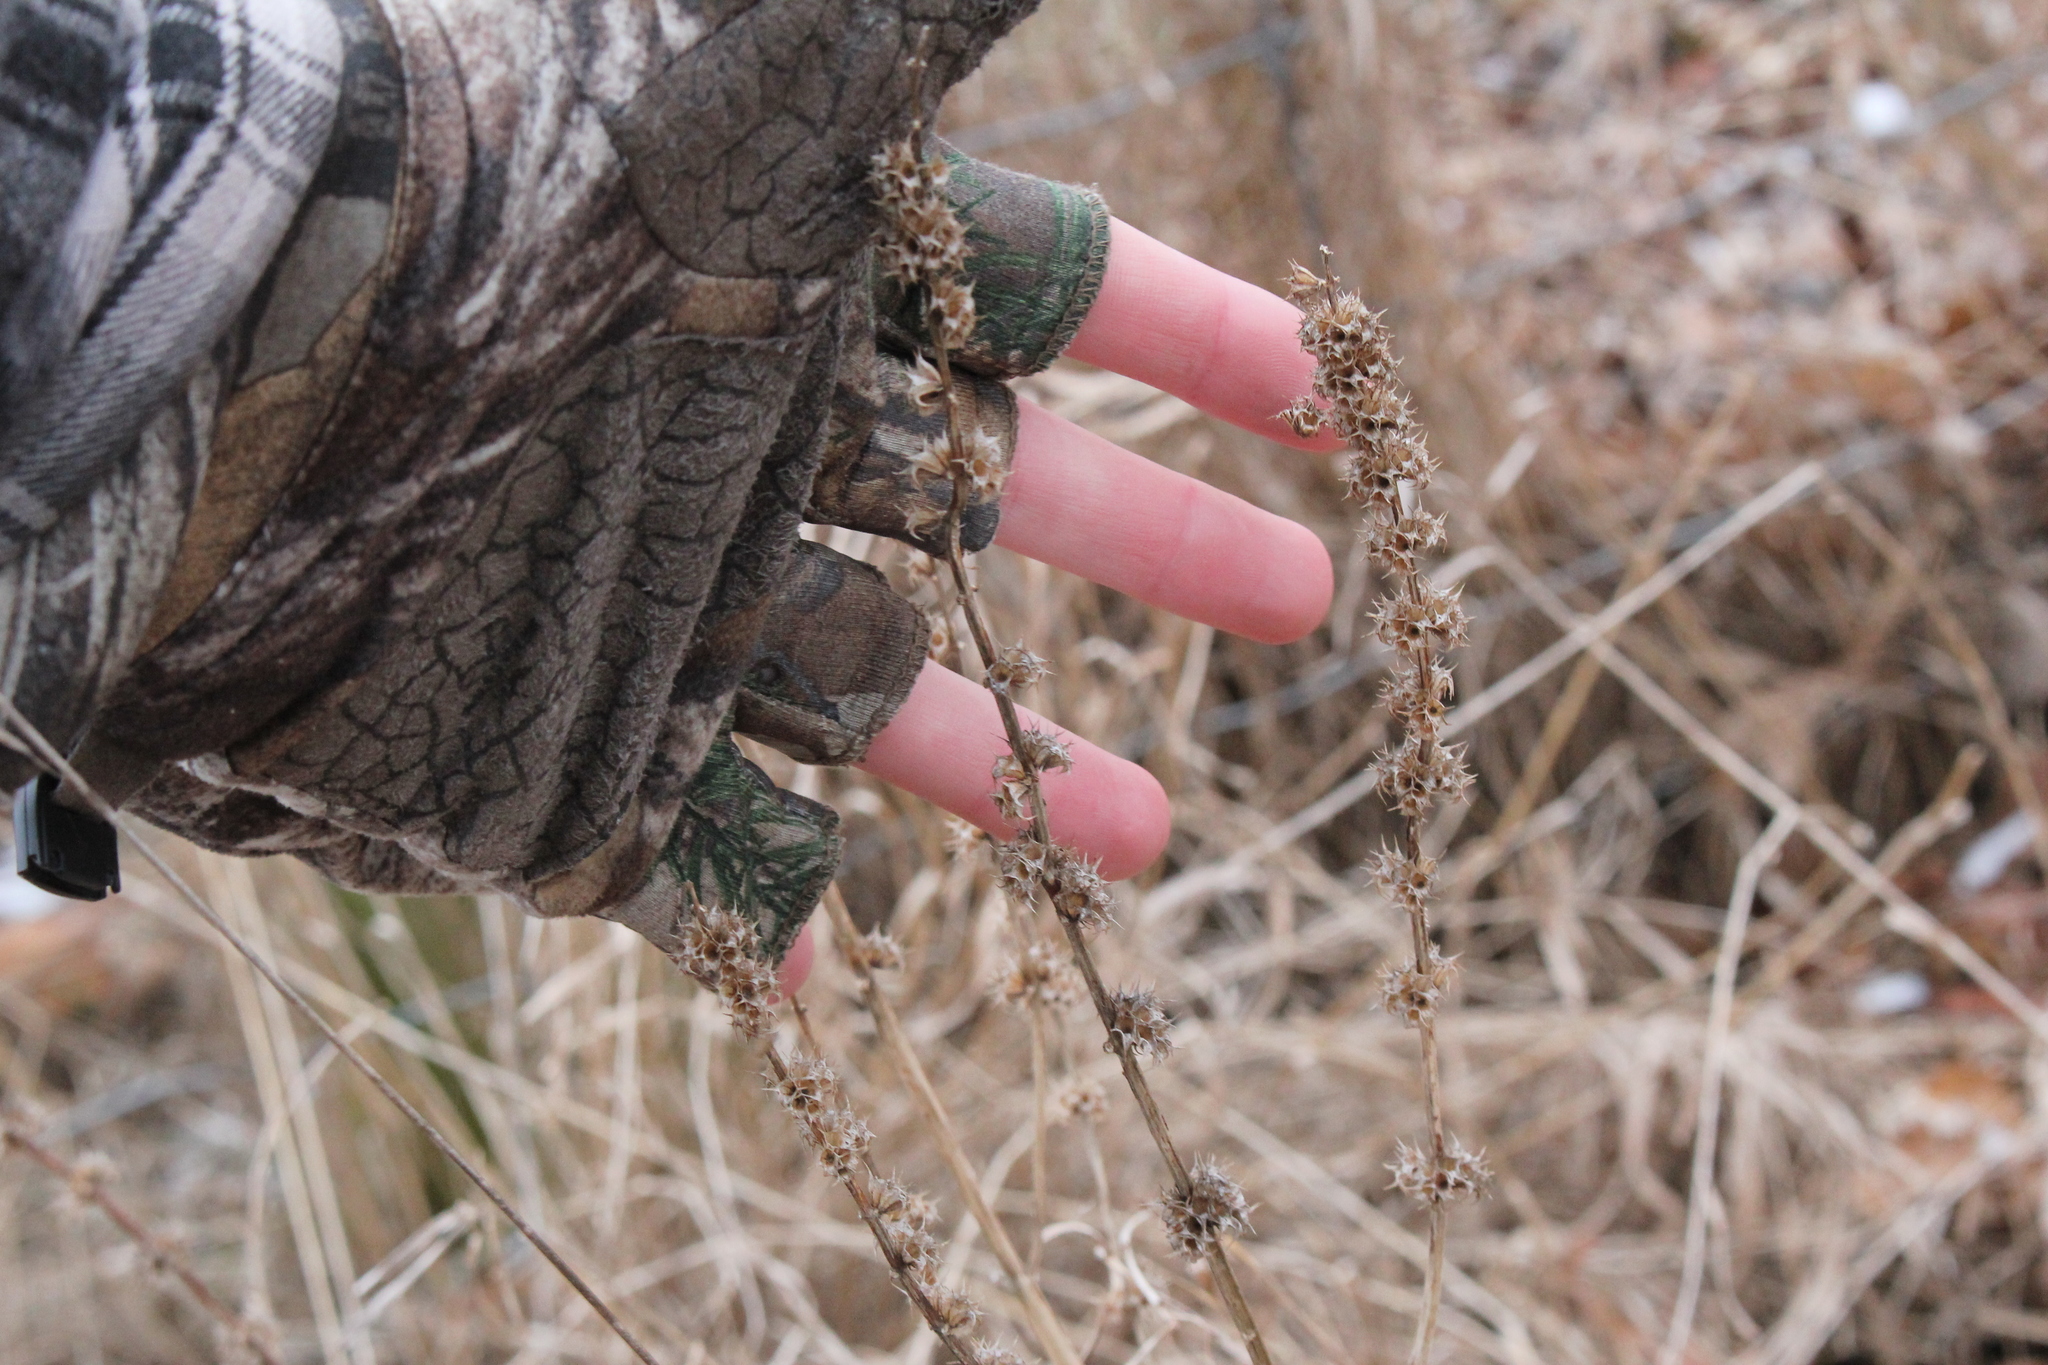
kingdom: Plantae
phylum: Tracheophyta
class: Magnoliopsida
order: Lamiales
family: Lamiaceae
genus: Leonurus
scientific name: Leonurus cardiaca
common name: Motherwort
